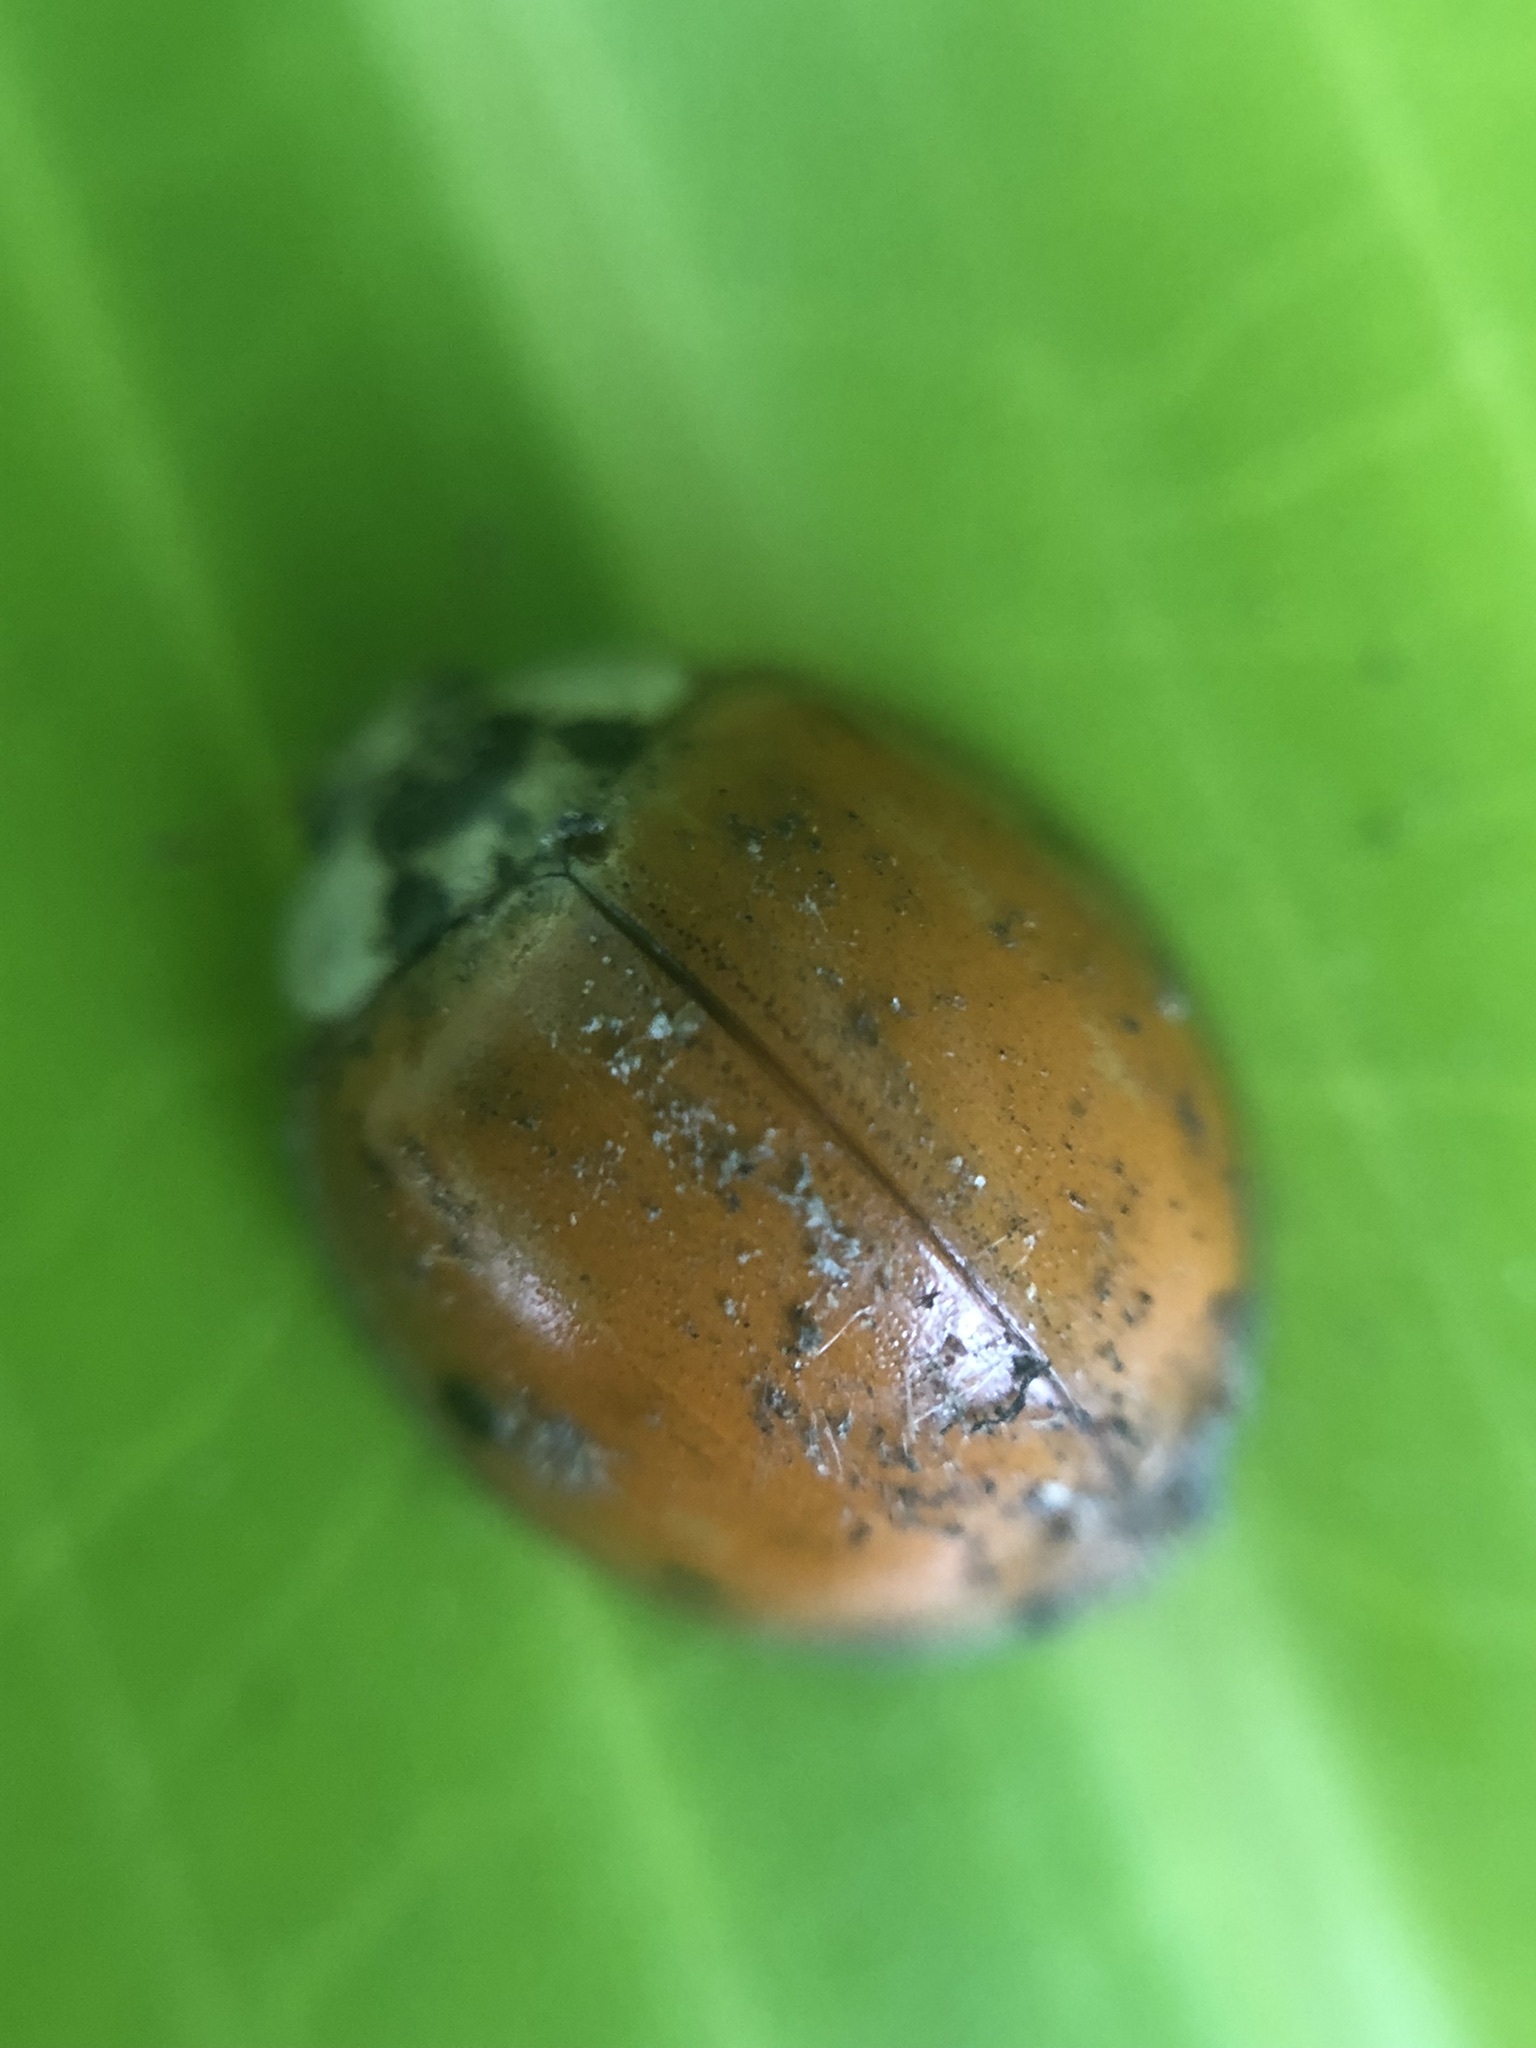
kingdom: Animalia
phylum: Arthropoda
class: Insecta
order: Coleoptera
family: Coccinellidae
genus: Harmonia
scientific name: Harmonia axyridis
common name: Harlequin ladybird
